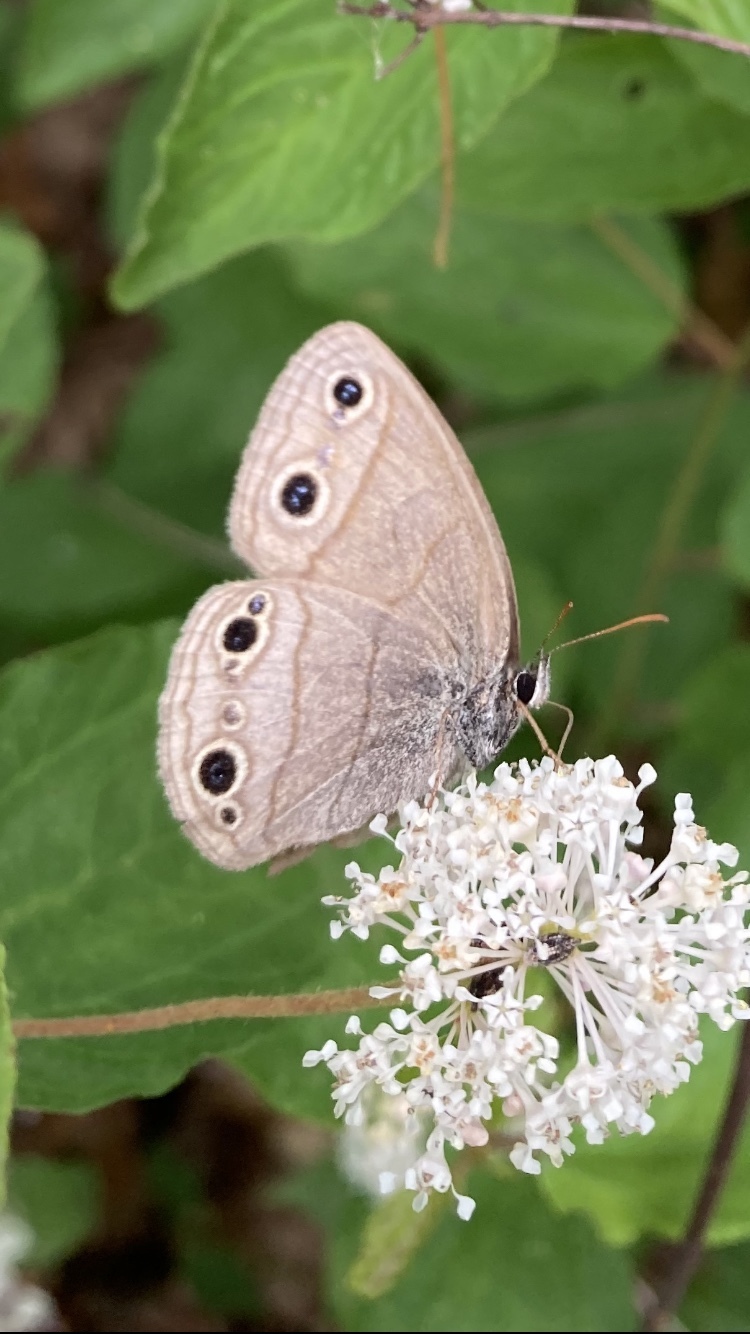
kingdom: Animalia
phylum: Arthropoda
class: Insecta
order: Lepidoptera
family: Nymphalidae
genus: Euptychia
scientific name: Euptychia cymela
